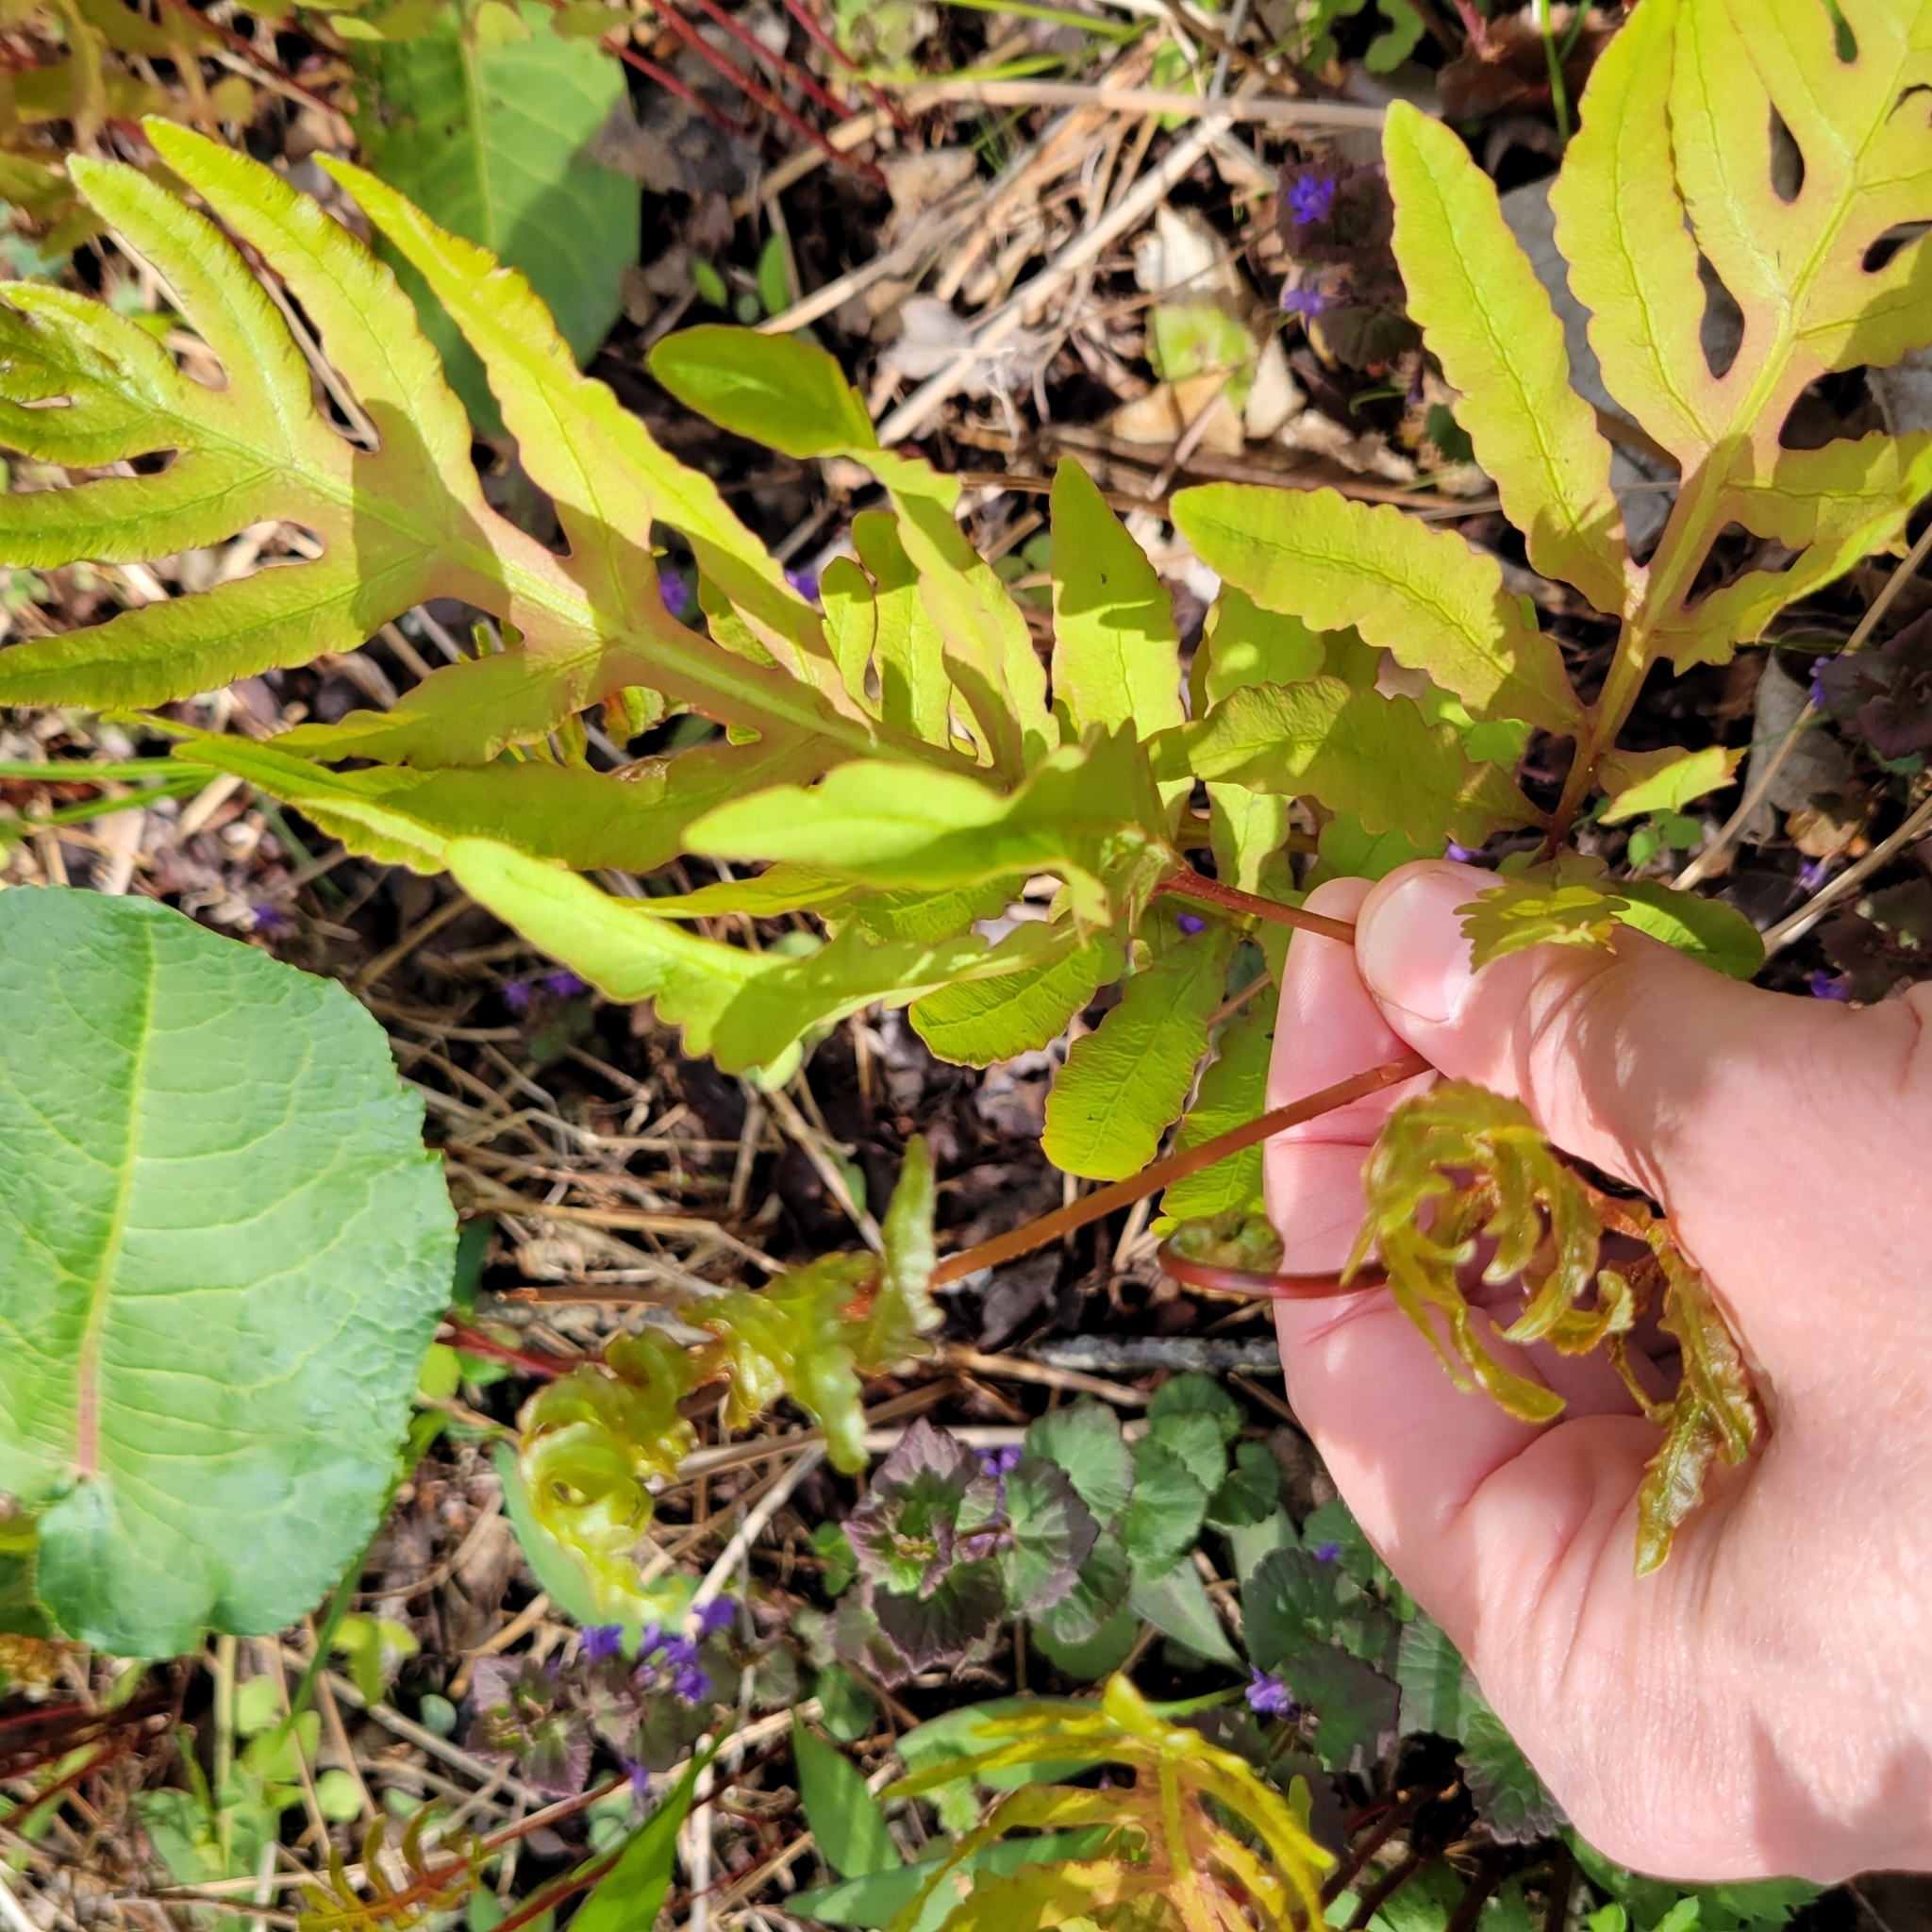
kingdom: Plantae
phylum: Tracheophyta
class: Polypodiopsida
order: Polypodiales
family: Onocleaceae
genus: Onoclea
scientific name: Onoclea sensibilis
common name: Sensitive fern
